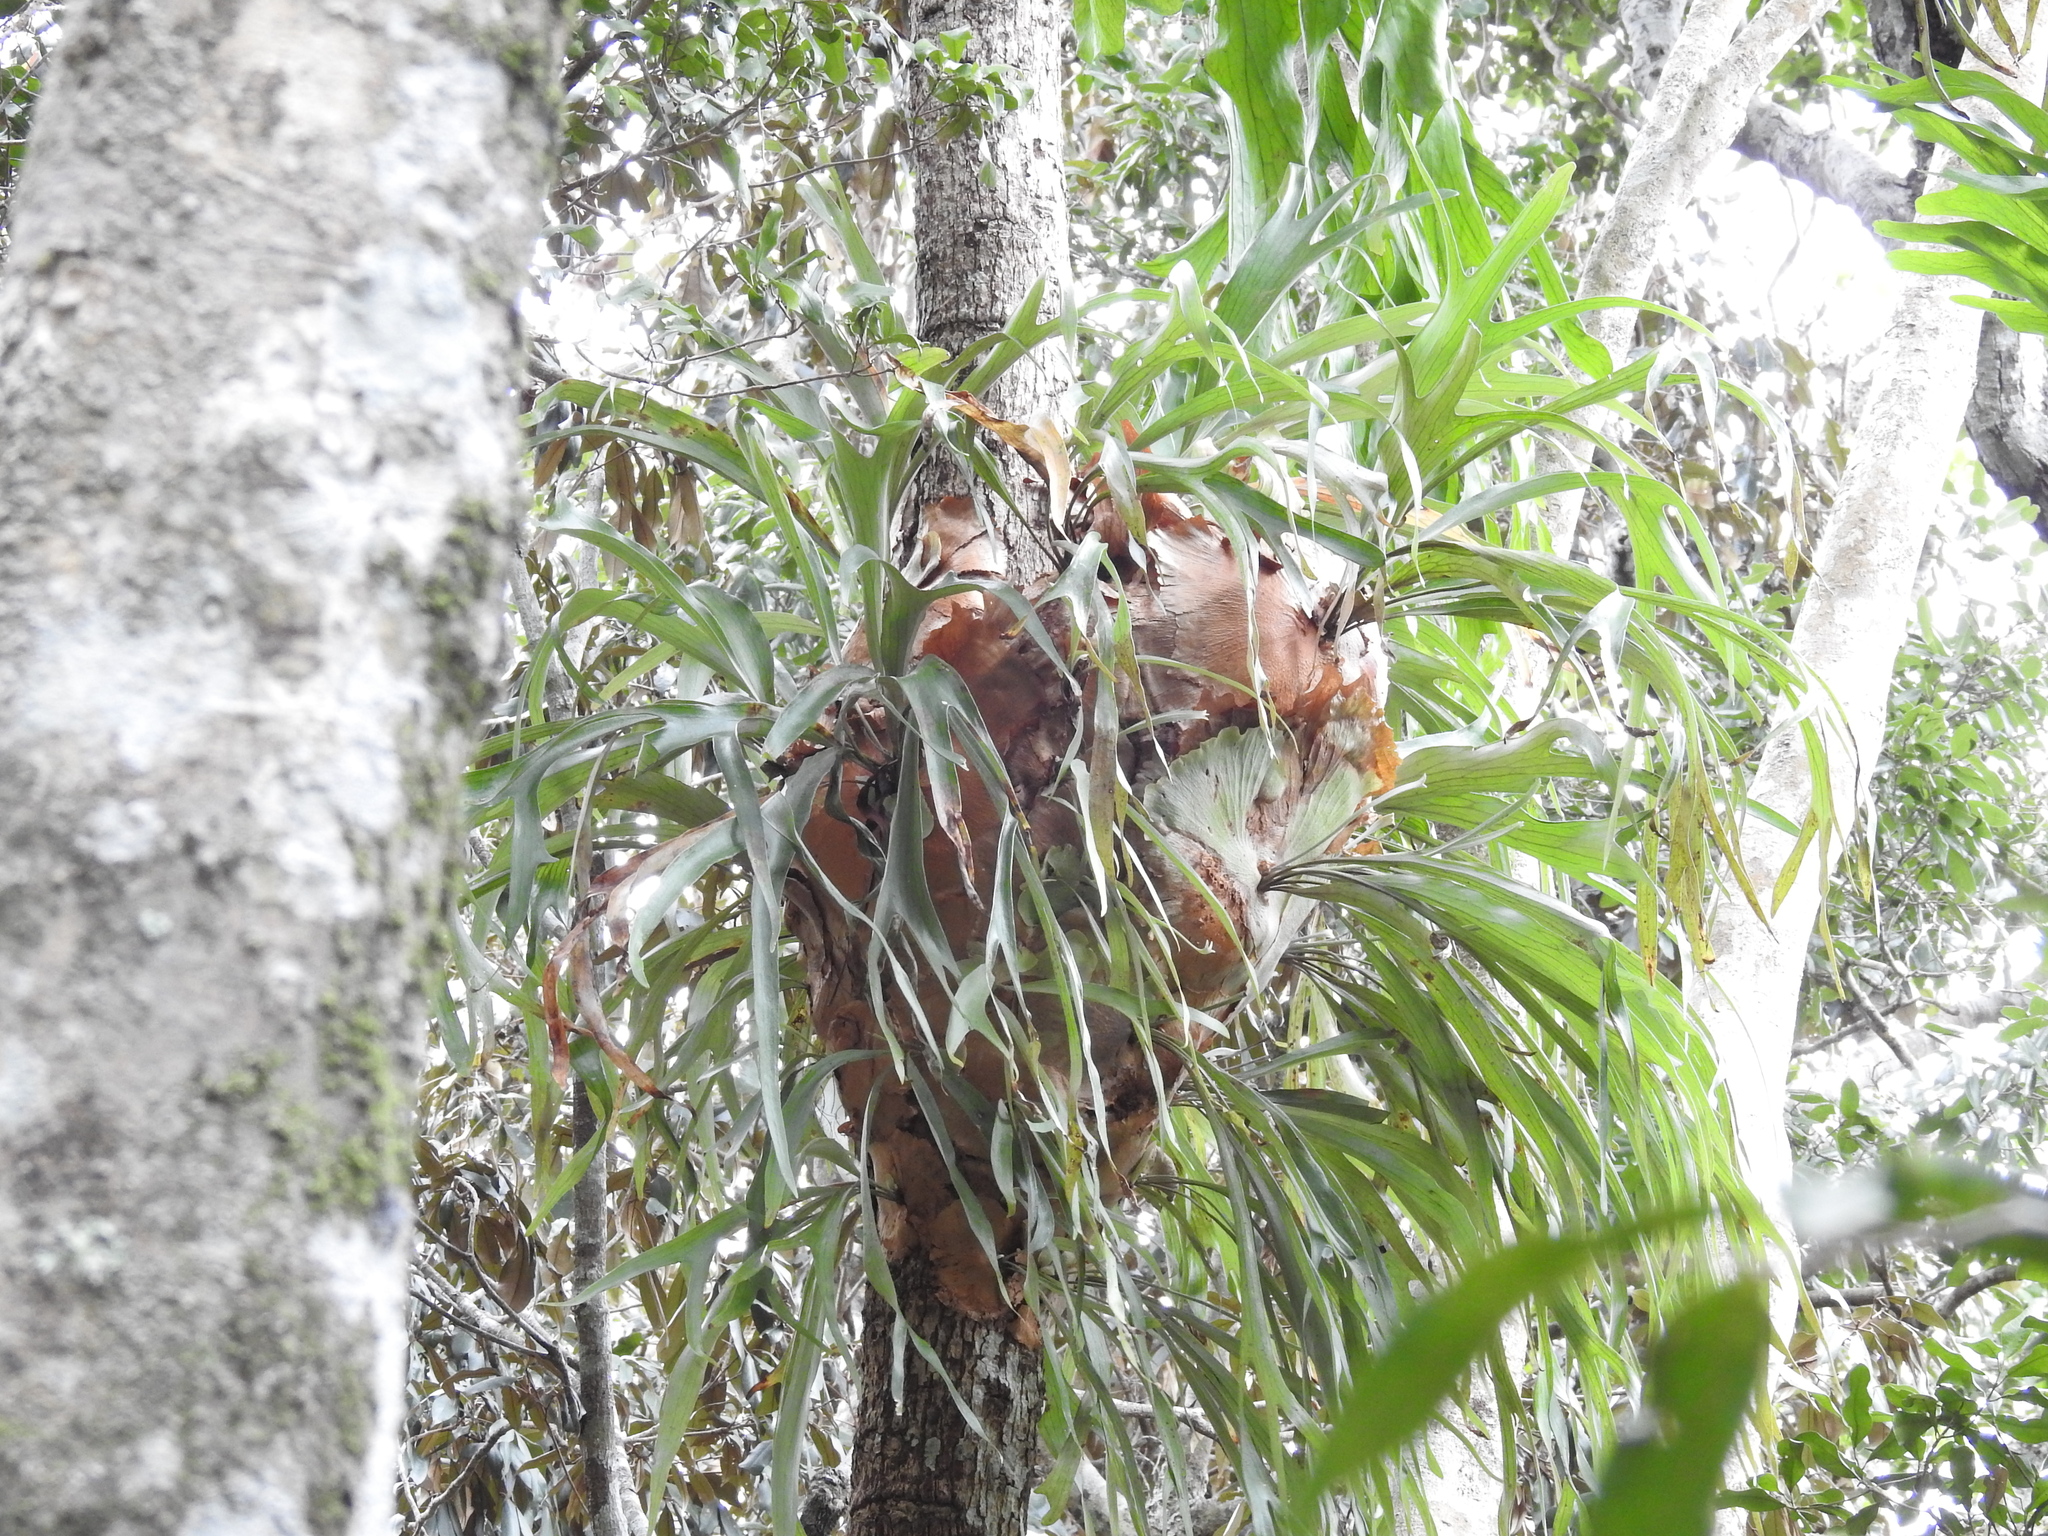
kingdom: Plantae
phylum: Tracheophyta
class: Polypodiopsida
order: Polypodiales
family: Polypodiaceae
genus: Platycerium
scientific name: Platycerium bifurcatum
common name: Elkhorn fern
